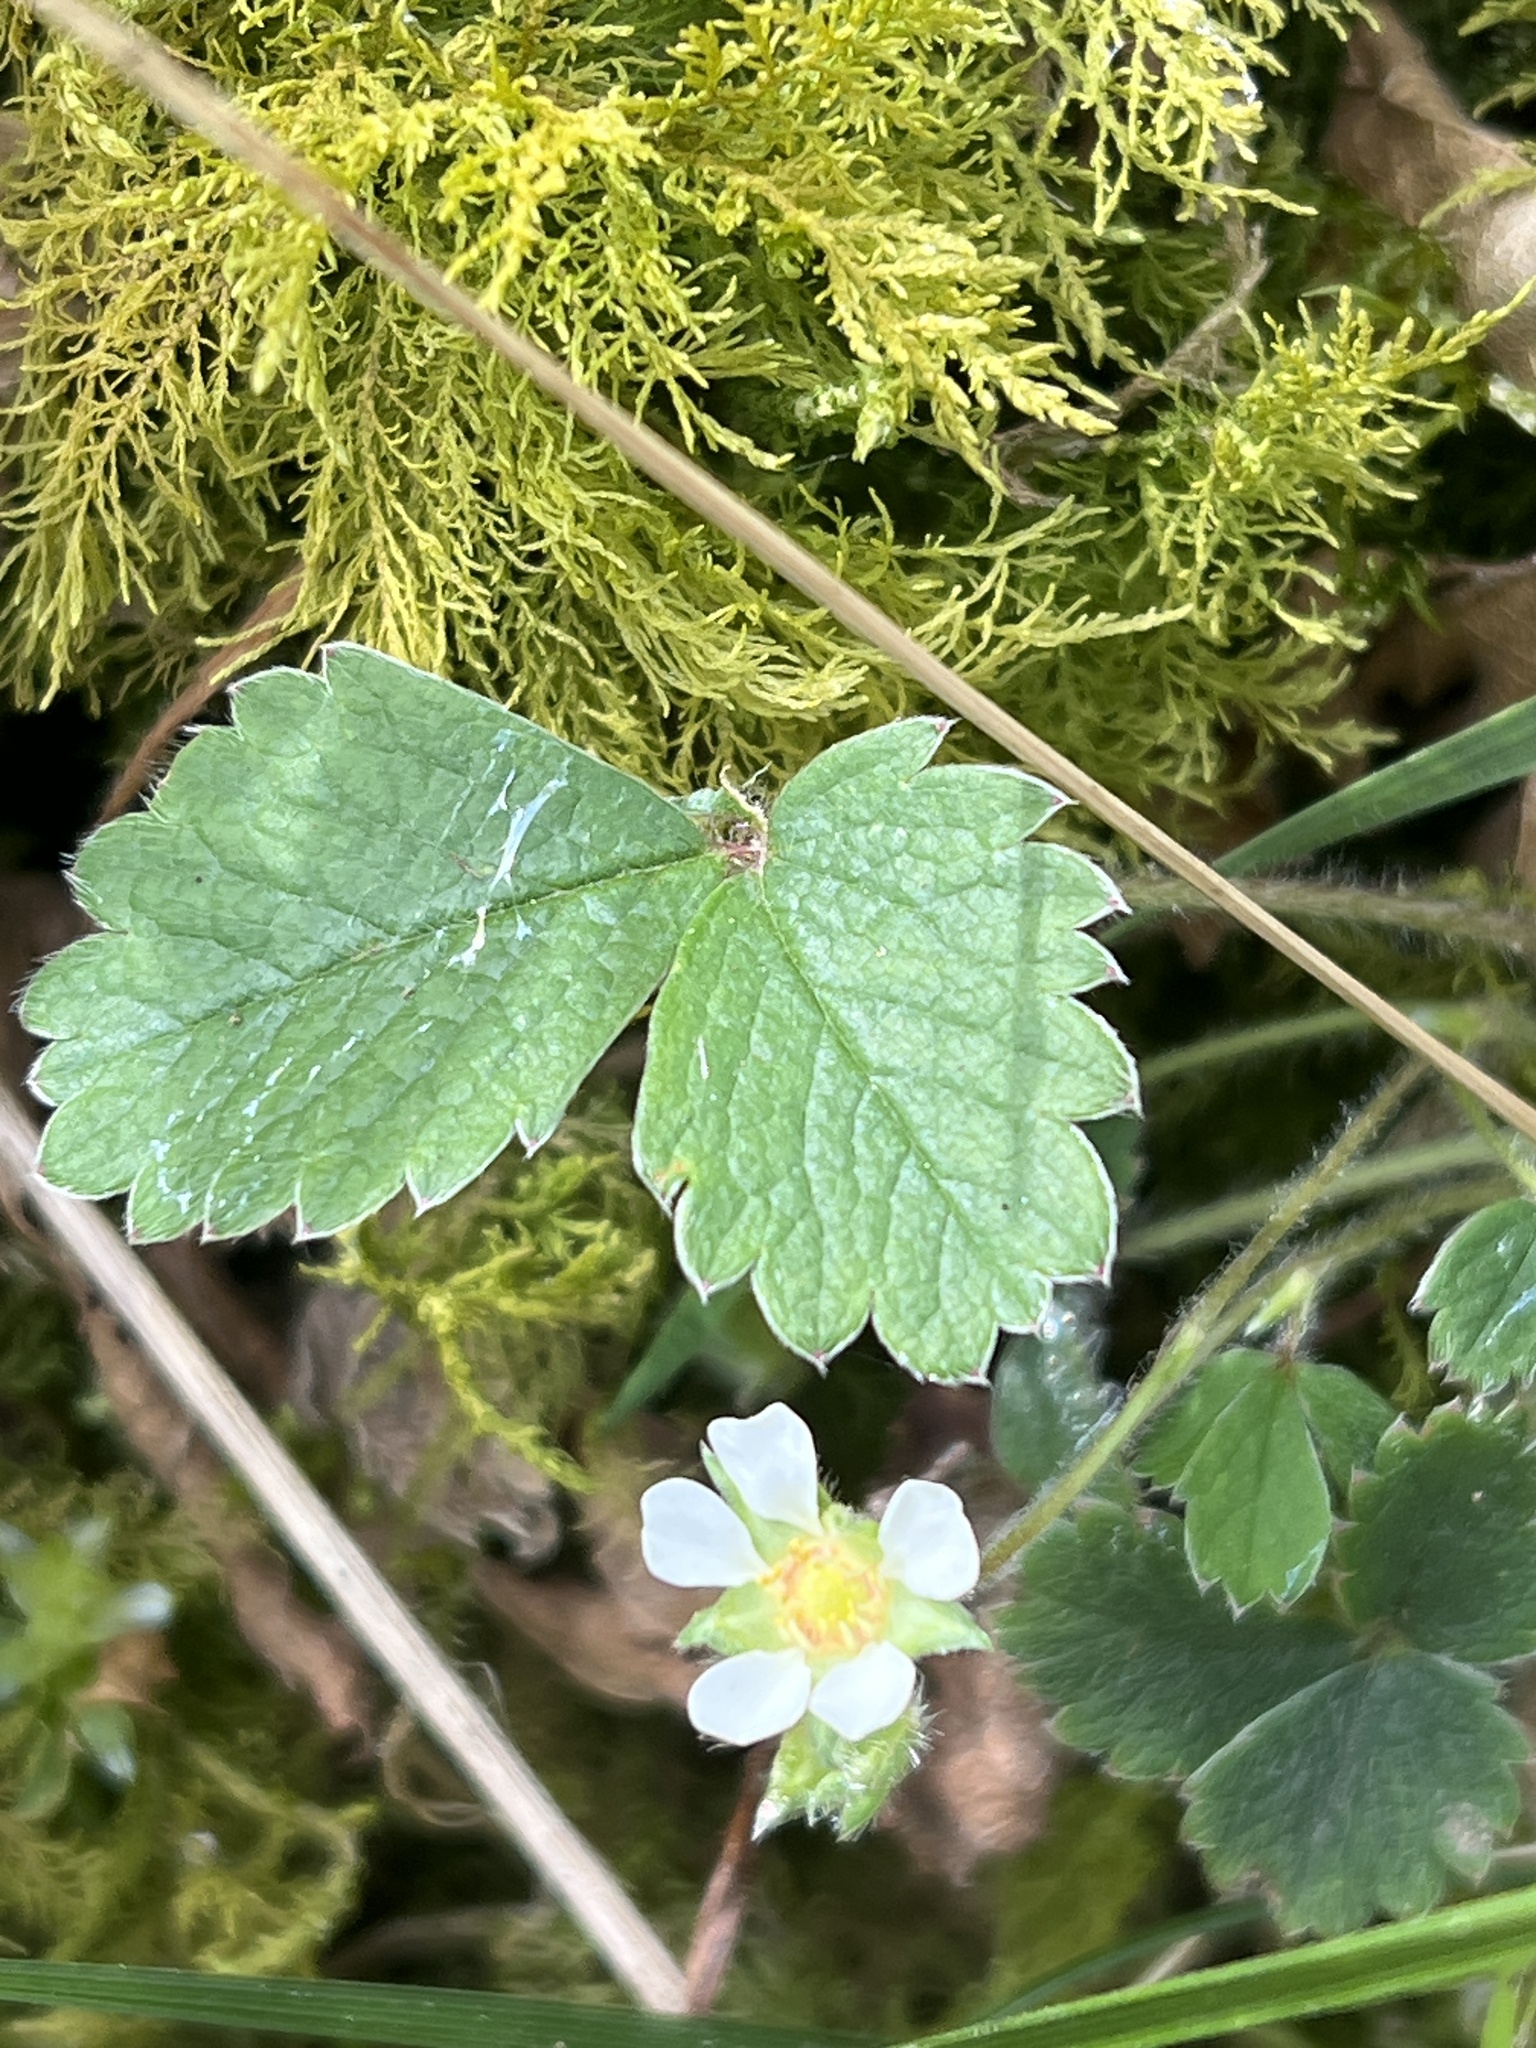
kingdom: Plantae
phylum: Tracheophyta
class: Magnoliopsida
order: Rosales
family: Rosaceae
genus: Potentilla
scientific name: Potentilla sterilis
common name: Barren strawberry
